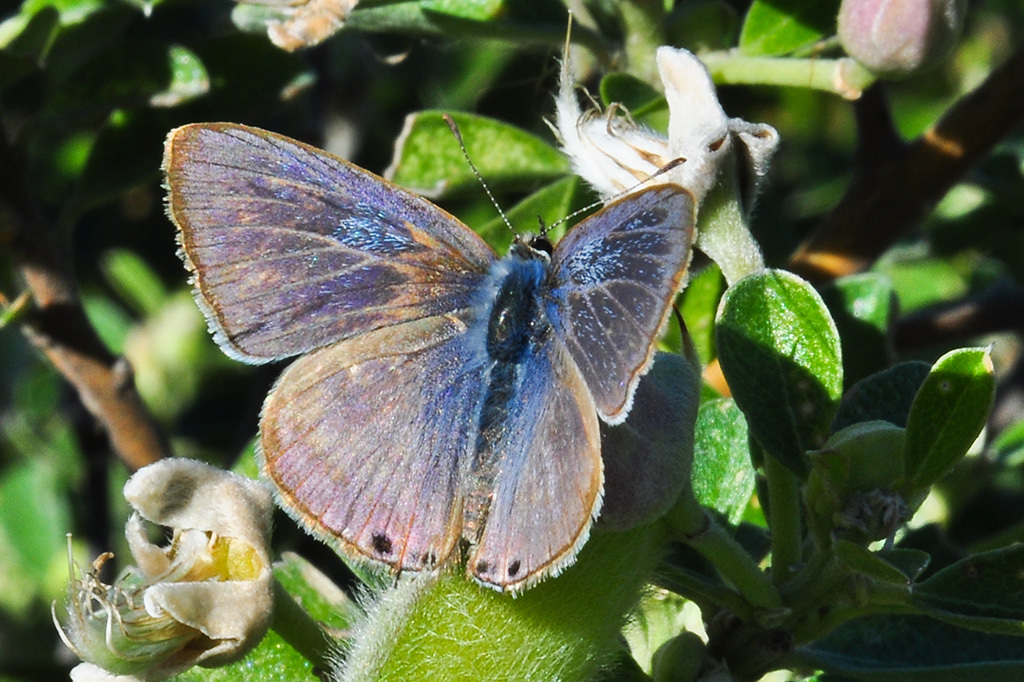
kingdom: Animalia
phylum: Arthropoda
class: Insecta
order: Lepidoptera
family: Lycaenidae
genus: Lampides
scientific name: Lampides boeticus
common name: Long-tailed blue
